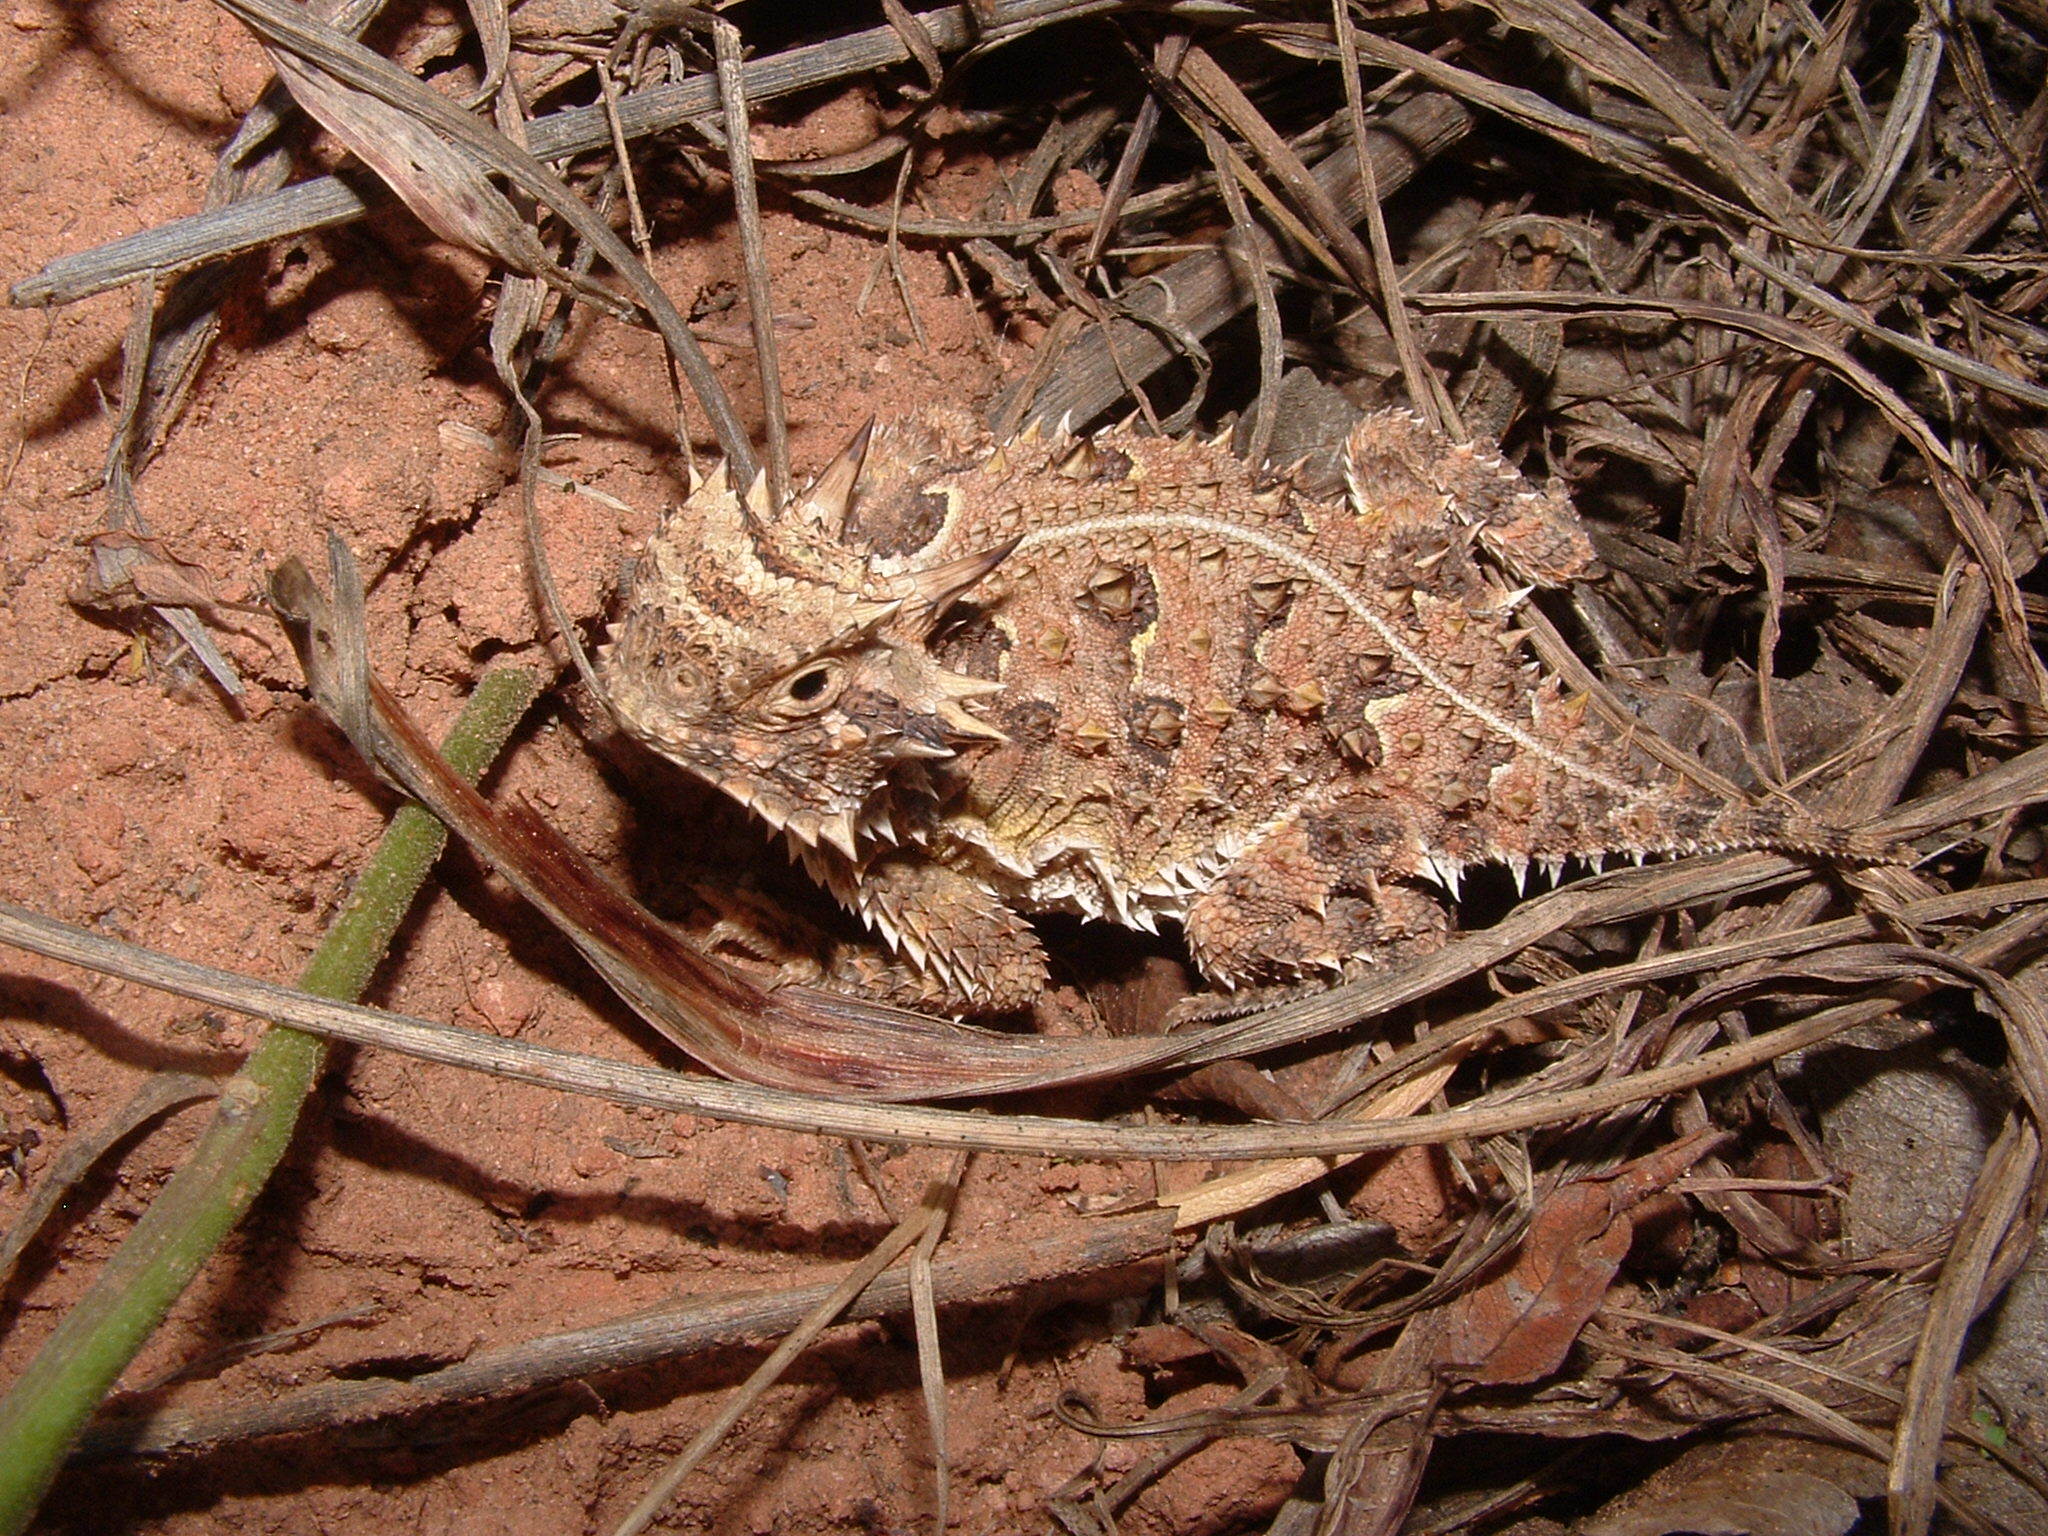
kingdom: Animalia
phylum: Chordata
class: Squamata
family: Phrynosomatidae
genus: Phrynosoma
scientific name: Phrynosoma cornutum
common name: Texas horned lizard
